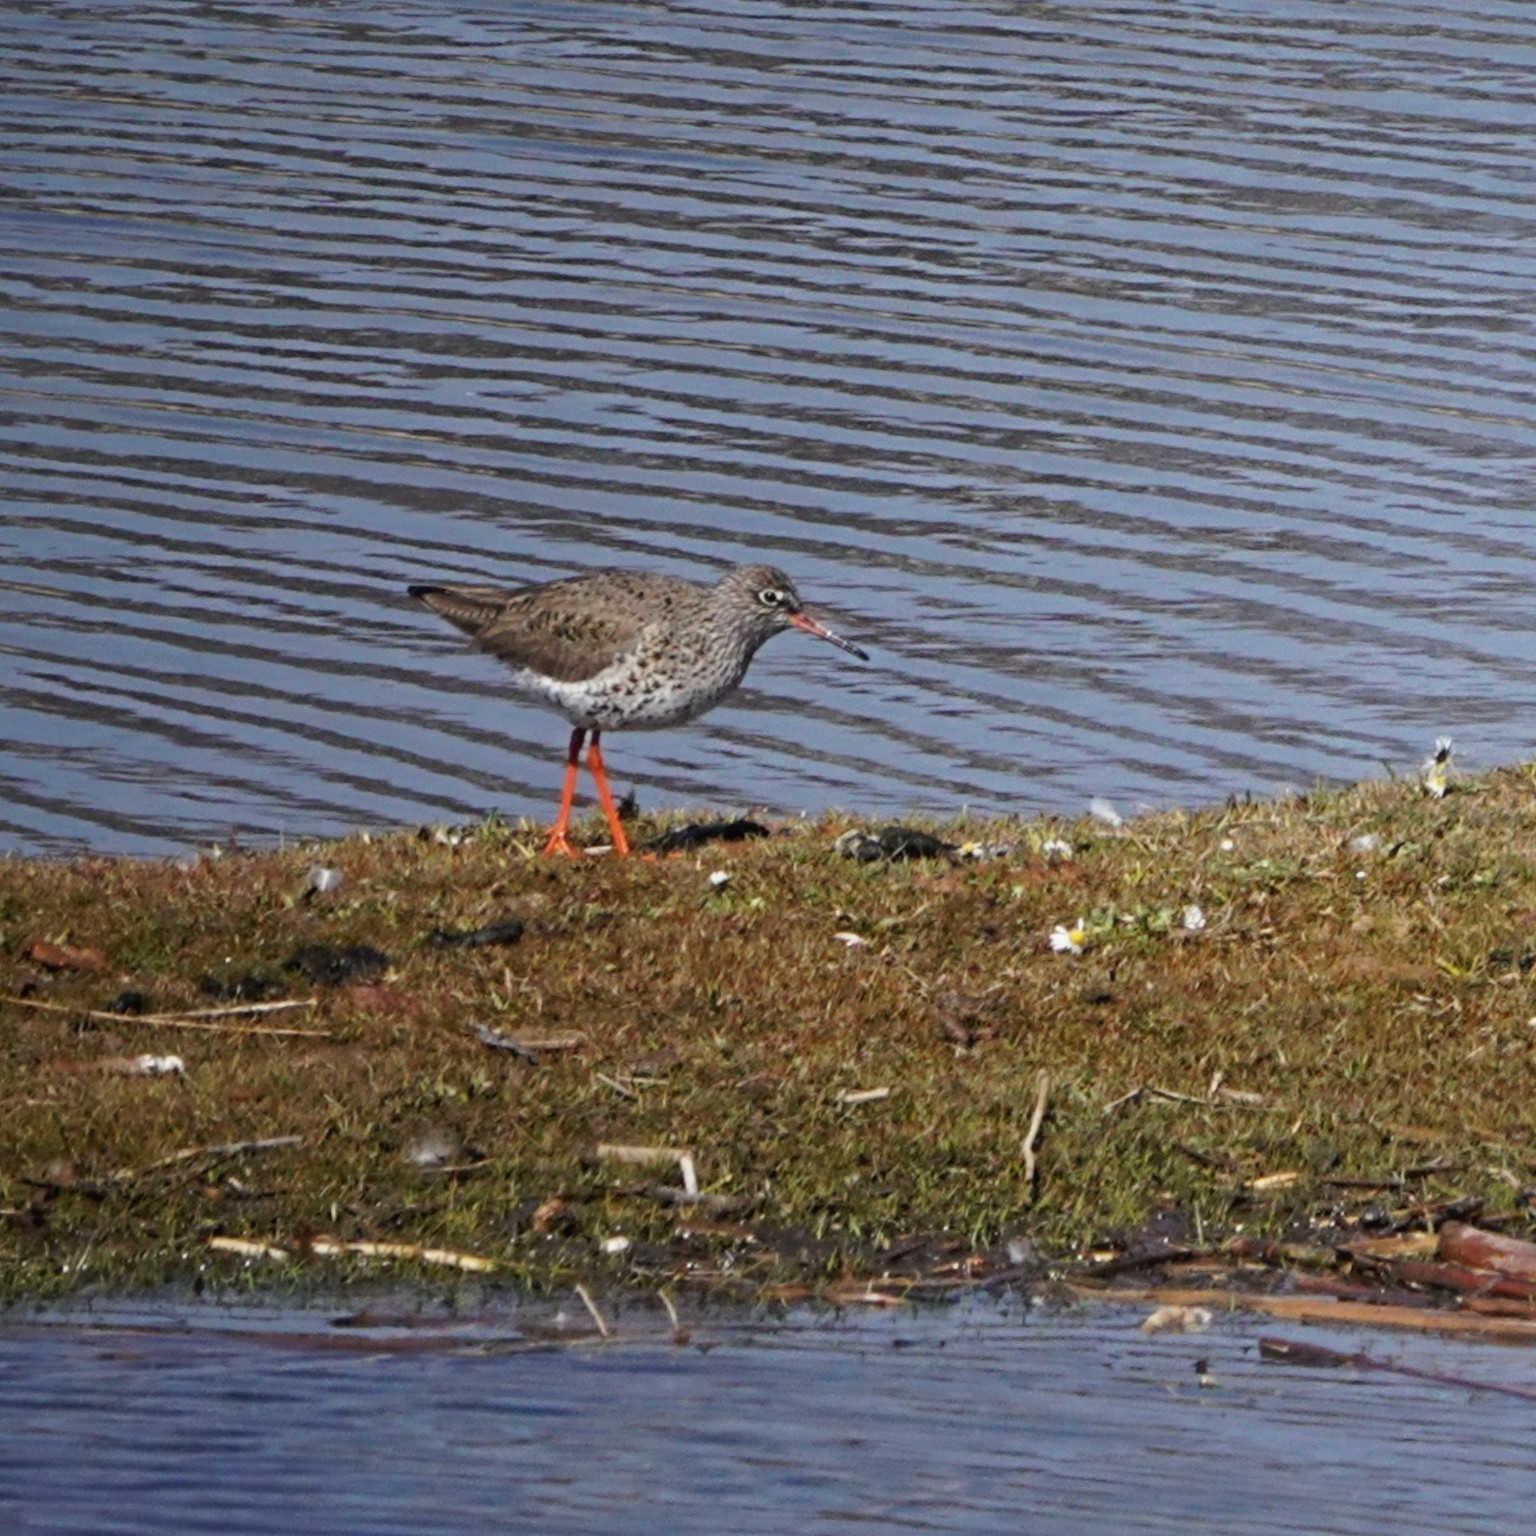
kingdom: Animalia
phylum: Chordata
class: Aves
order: Charadriiformes
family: Scolopacidae
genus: Tringa
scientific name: Tringa totanus
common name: Common redshank
